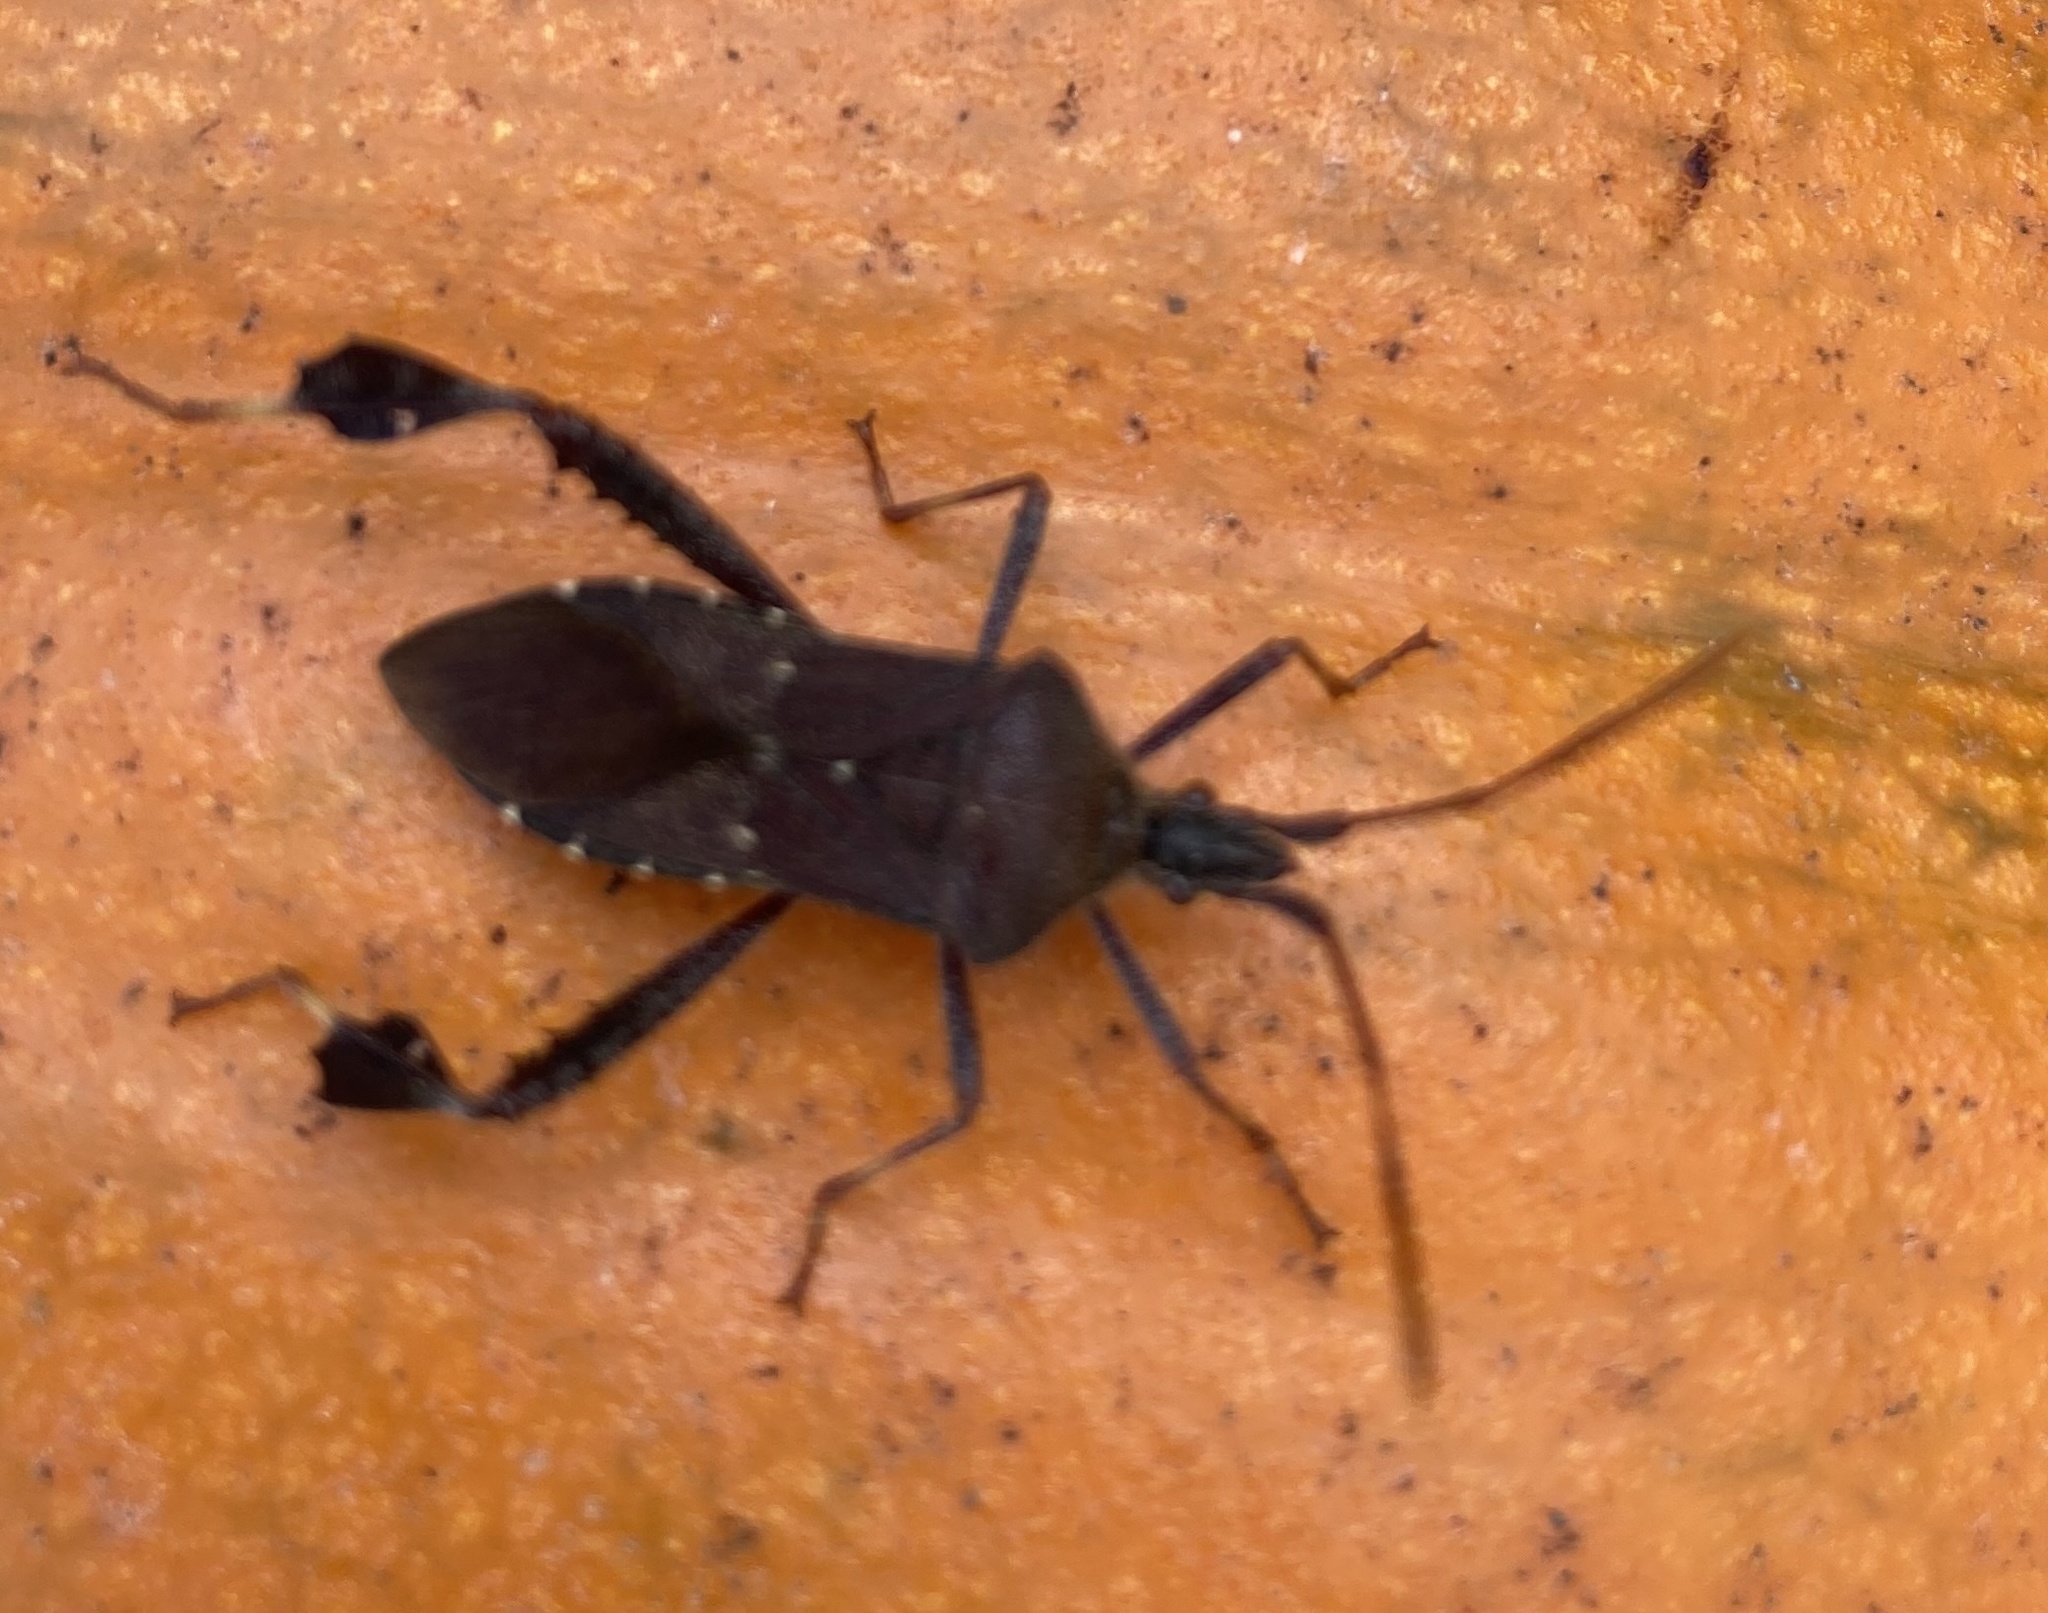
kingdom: Animalia
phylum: Arthropoda
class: Insecta
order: Hemiptera
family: Coreidae
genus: Leptoglossus
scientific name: Leptoglossus oppositus
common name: Northern leaf-footed bug
